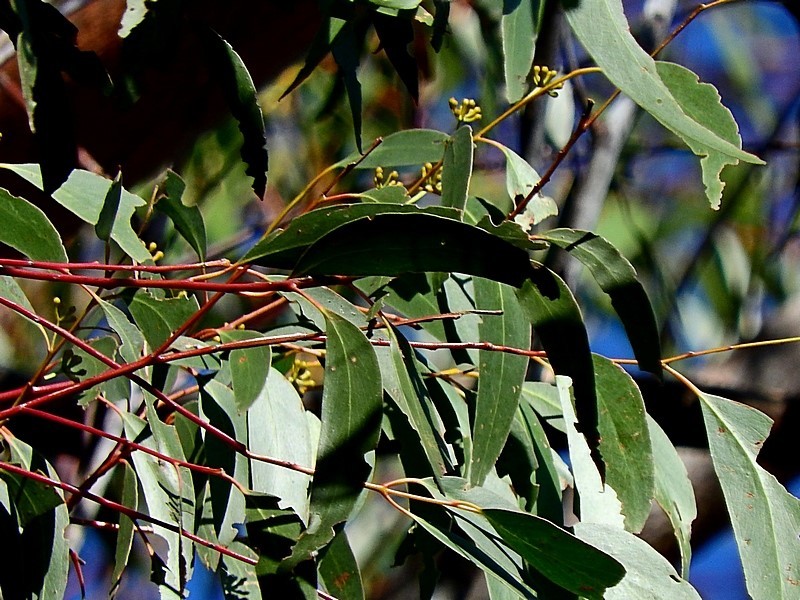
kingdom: Plantae
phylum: Tracheophyta
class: Magnoliopsida
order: Myrtales
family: Myrtaceae
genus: Eucalyptus
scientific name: Eucalyptus sieberi
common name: Black-ash
